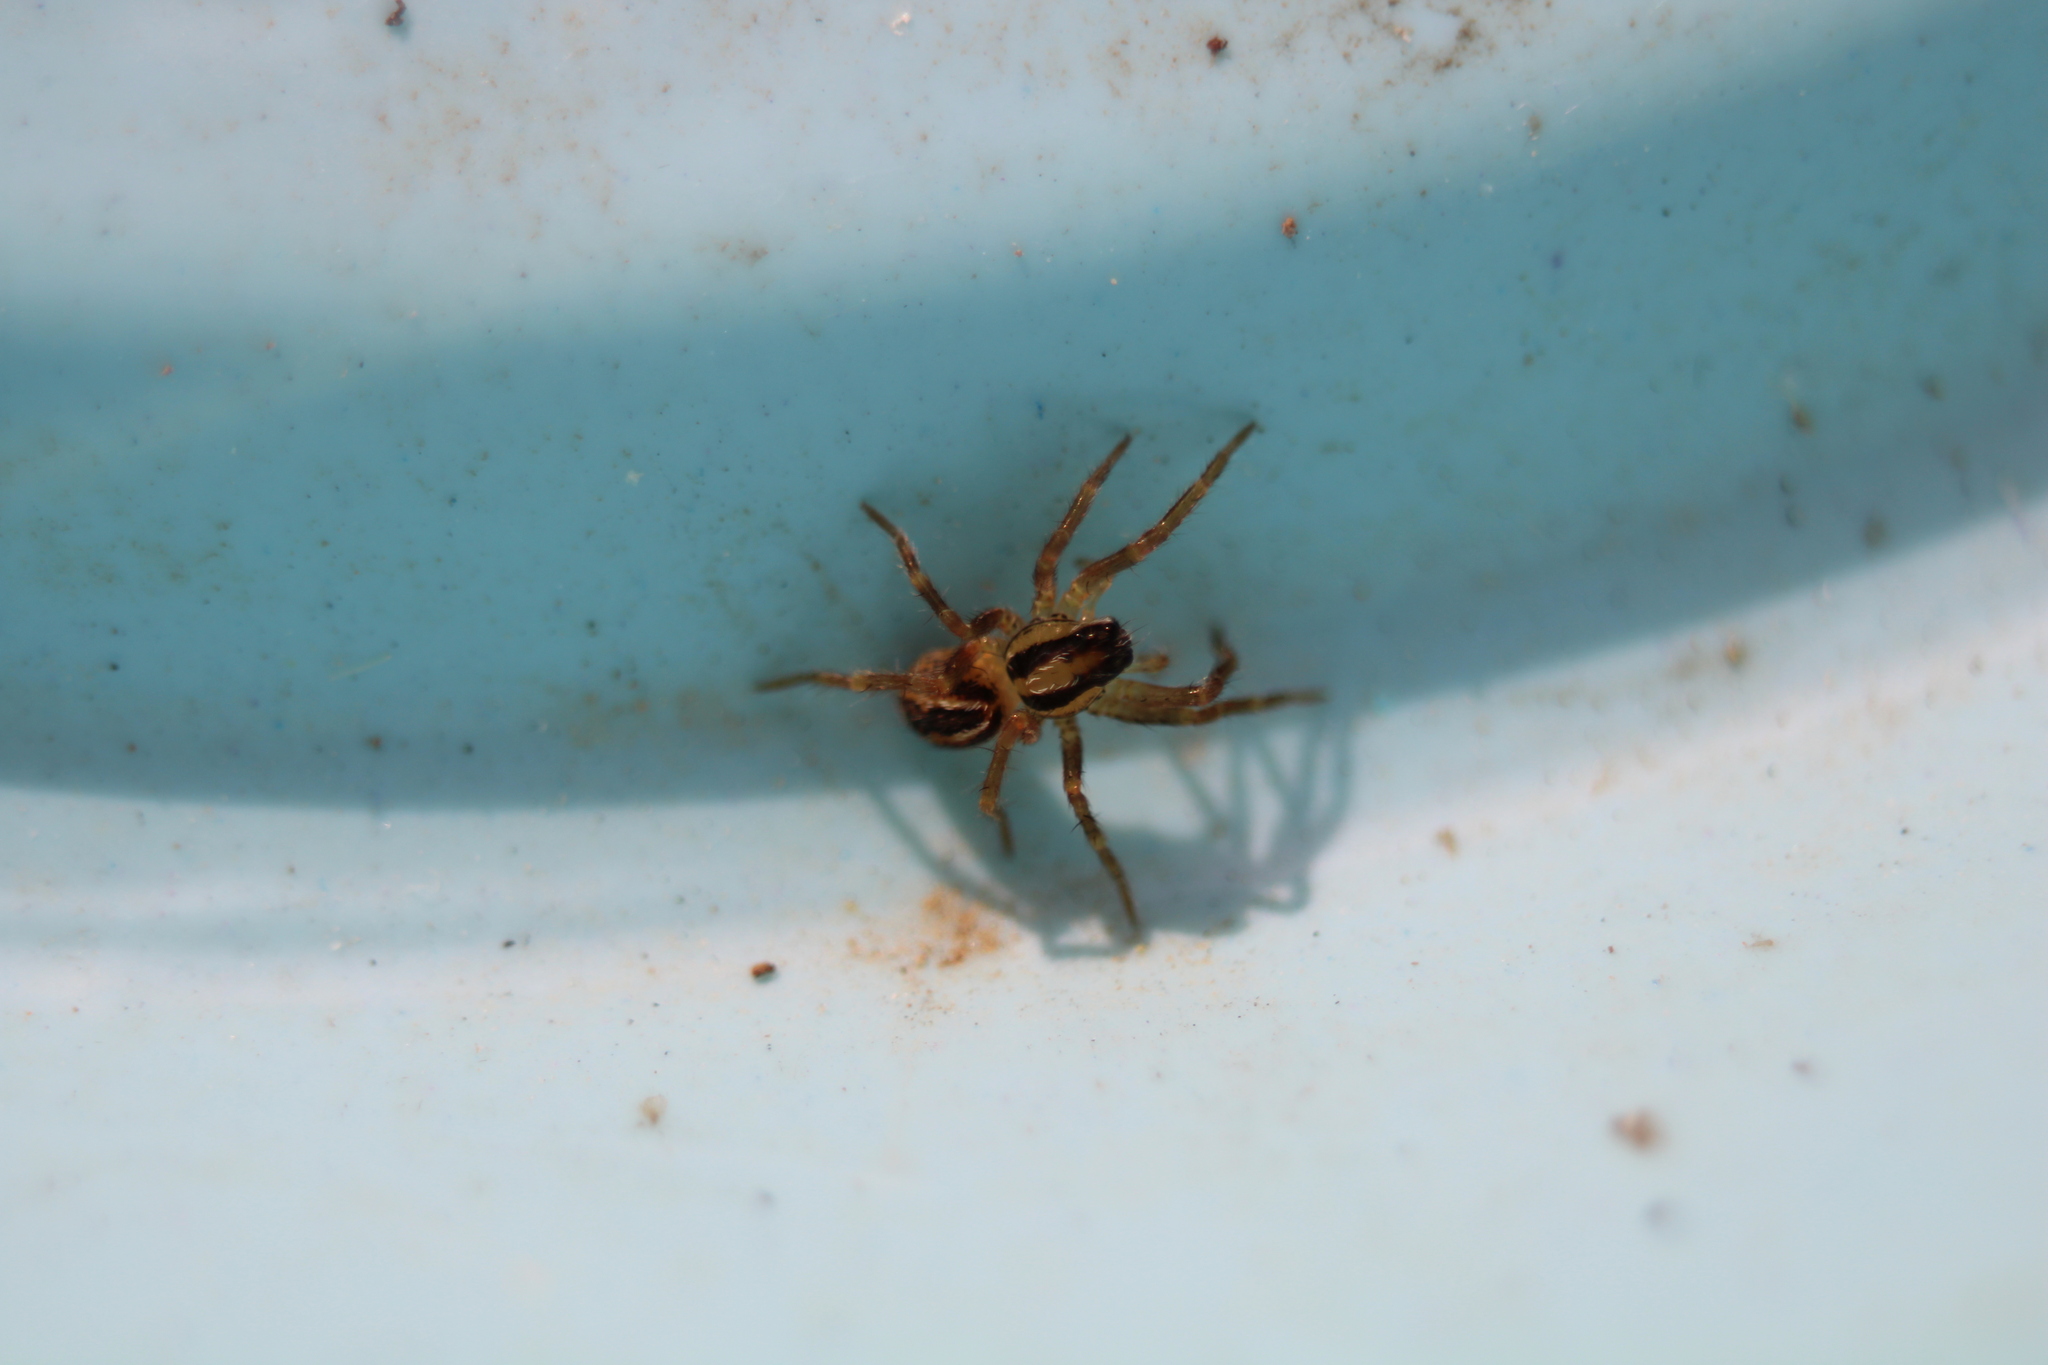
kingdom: Animalia
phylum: Arthropoda
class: Arachnida
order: Araneae
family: Lycosidae
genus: Rabidosa
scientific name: Rabidosa rabida
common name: Rabid wolf spider
